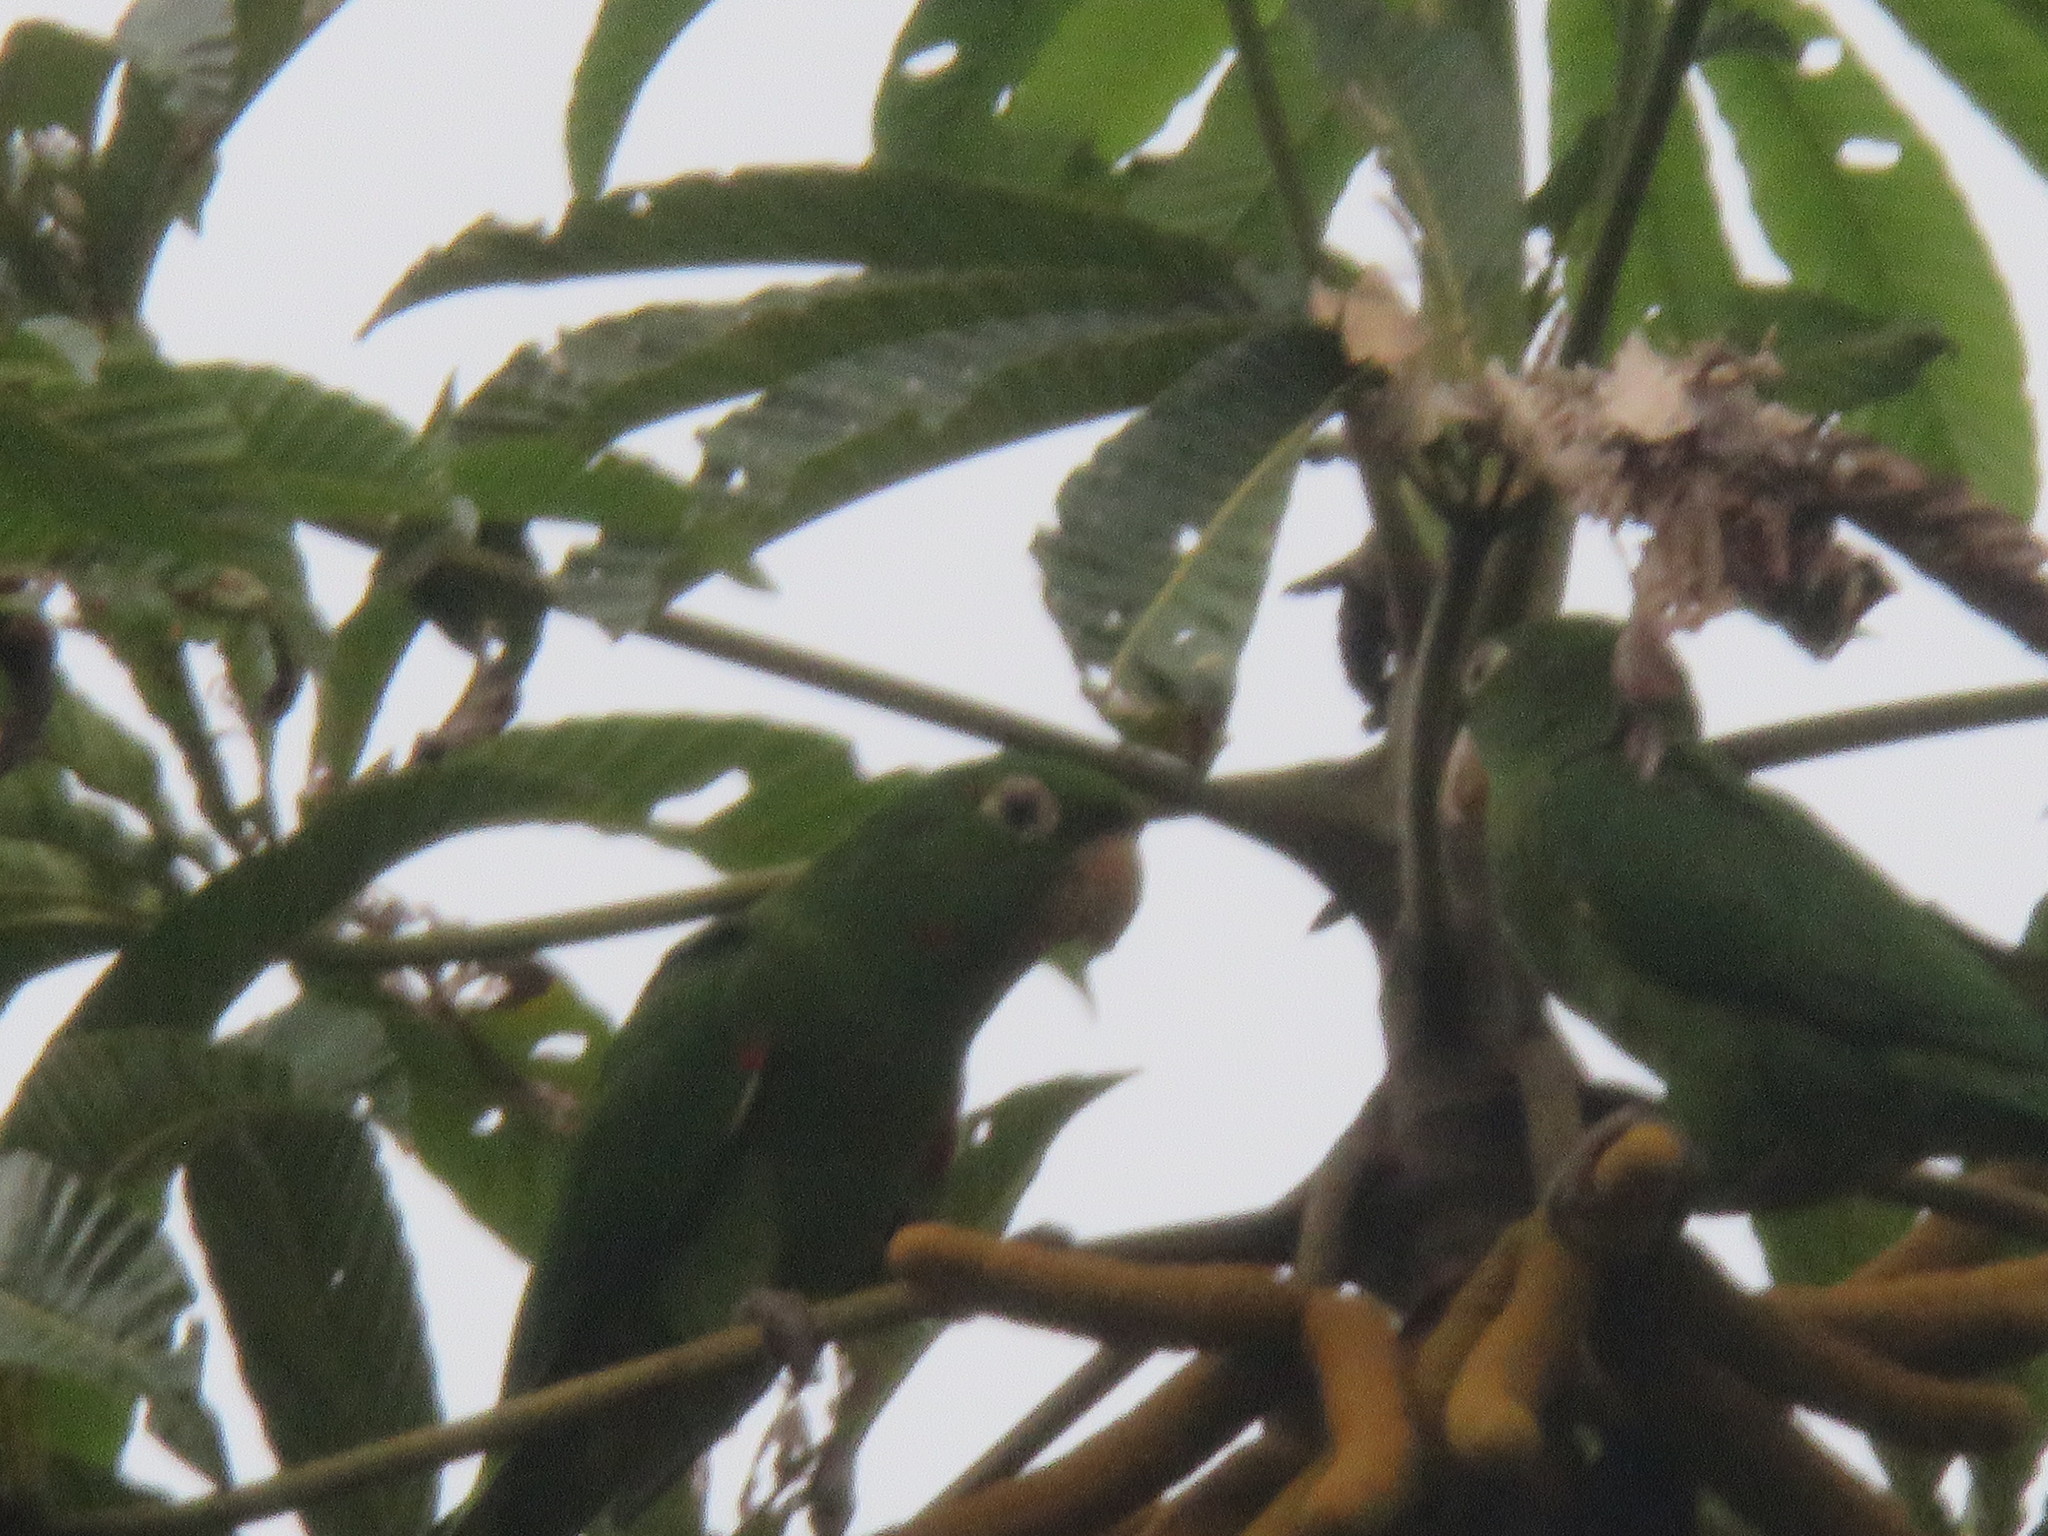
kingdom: Animalia
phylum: Chordata
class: Aves
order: Psittaciformes
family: Psittacidae
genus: Aratinga
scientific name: Aratinga leucophthalma
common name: White-eyed parakeet
